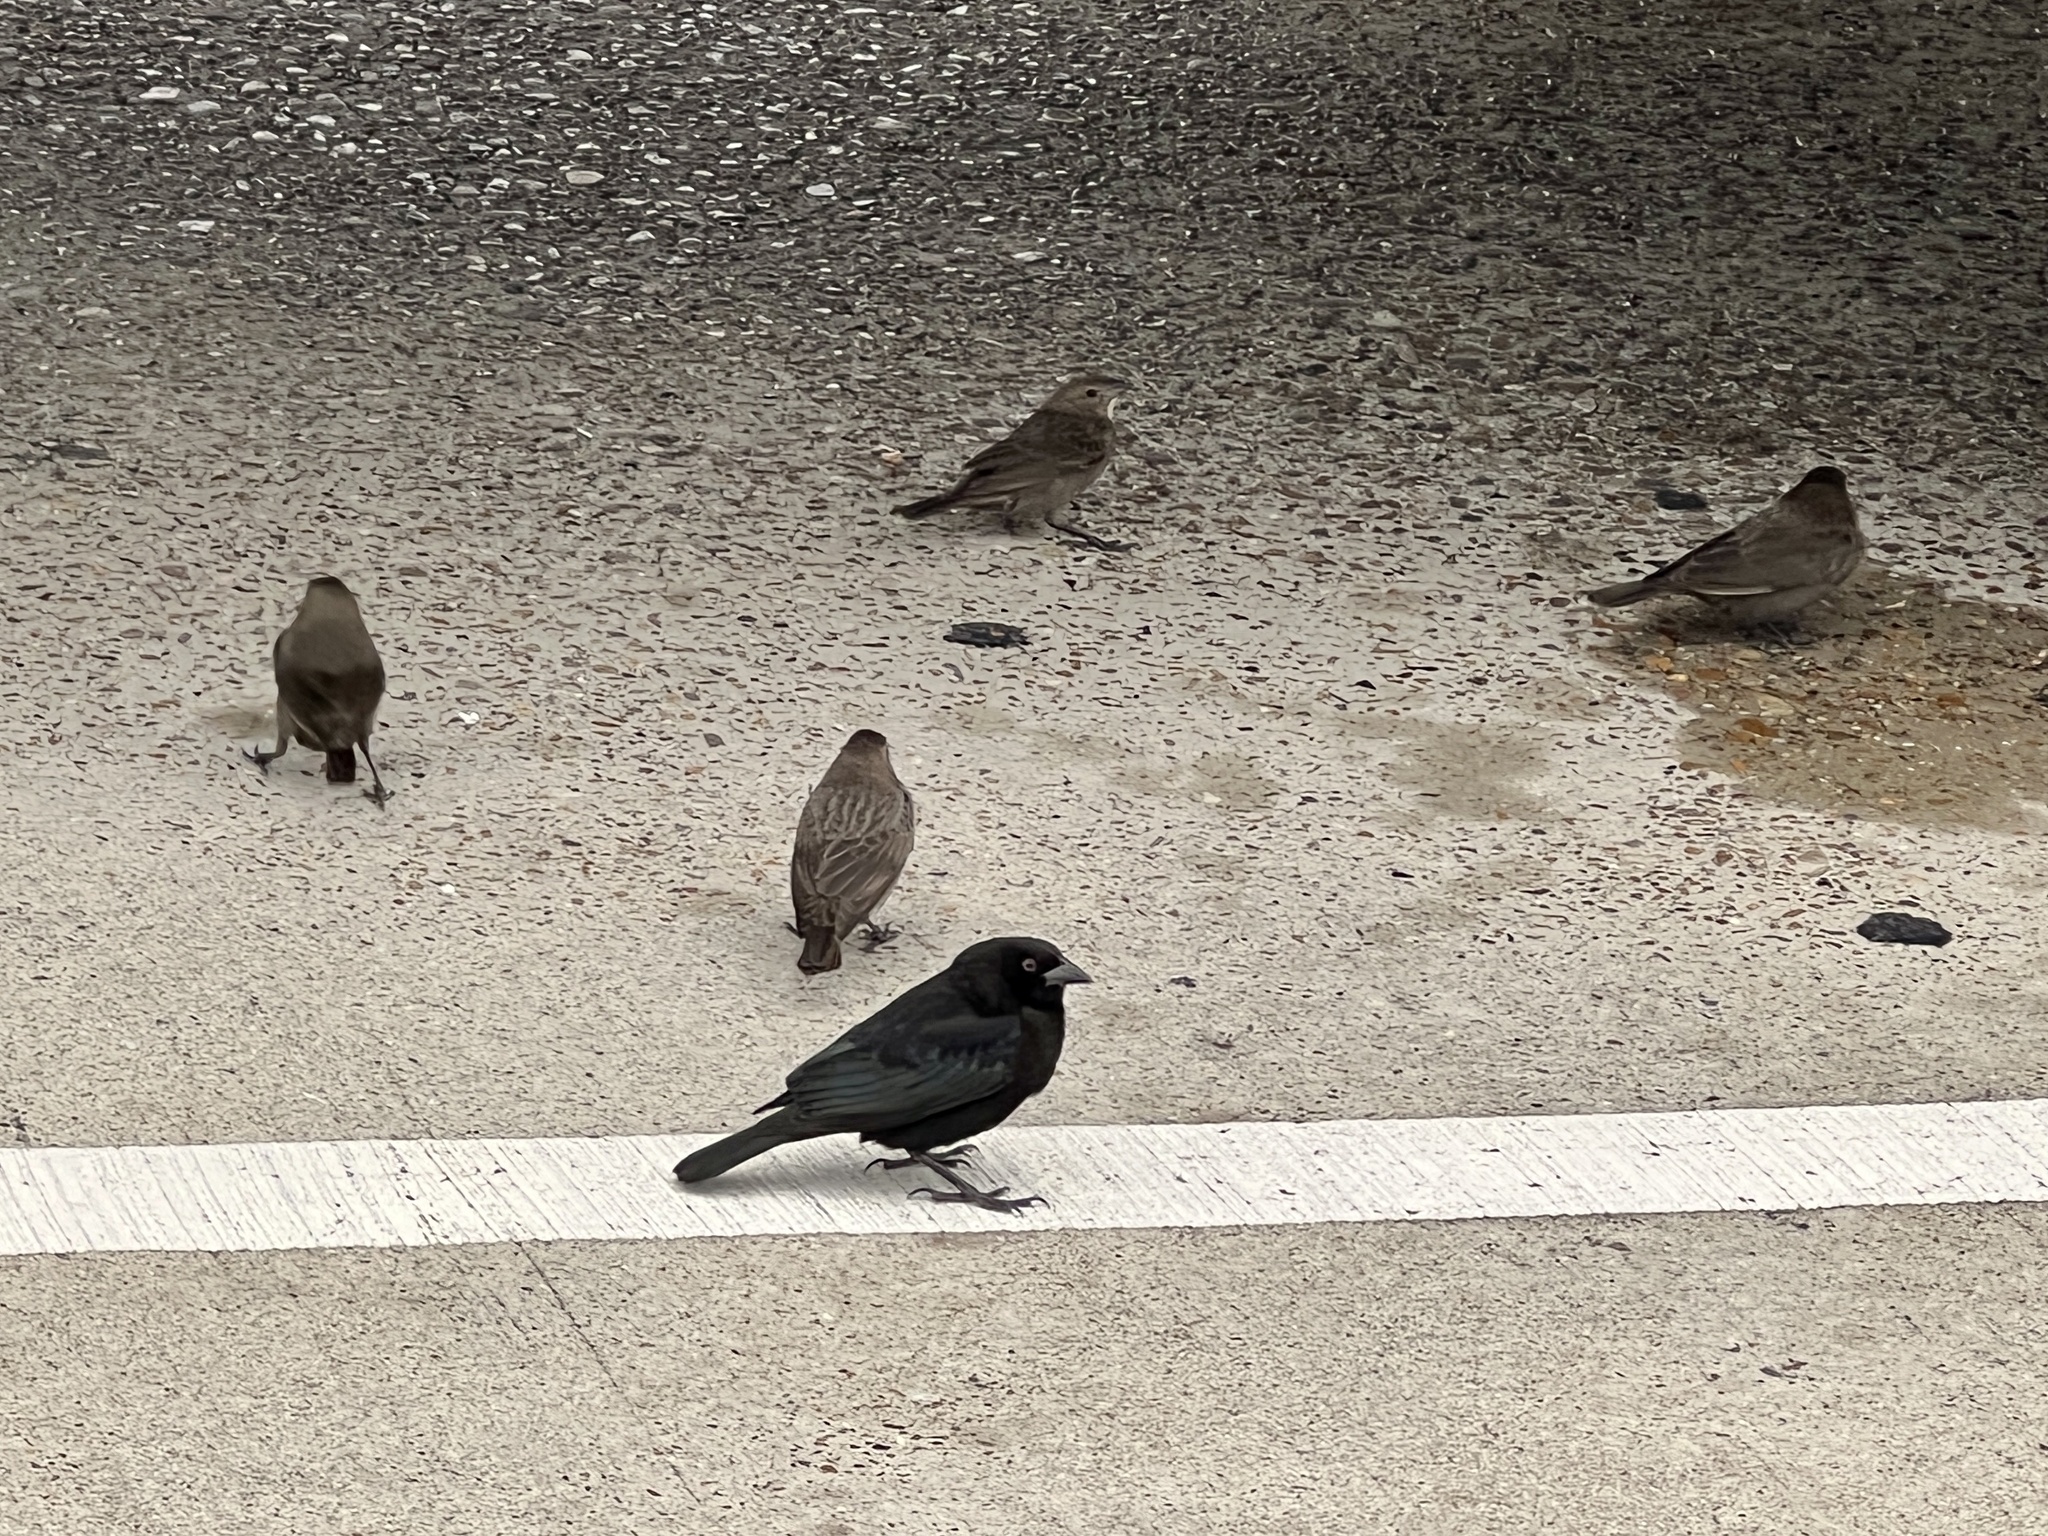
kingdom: Animalia
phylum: Chordata
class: Aves
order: Passeriformes
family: Icteridae
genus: Molothrus
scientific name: Molothrus aeneus
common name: Bronzed cowbird
